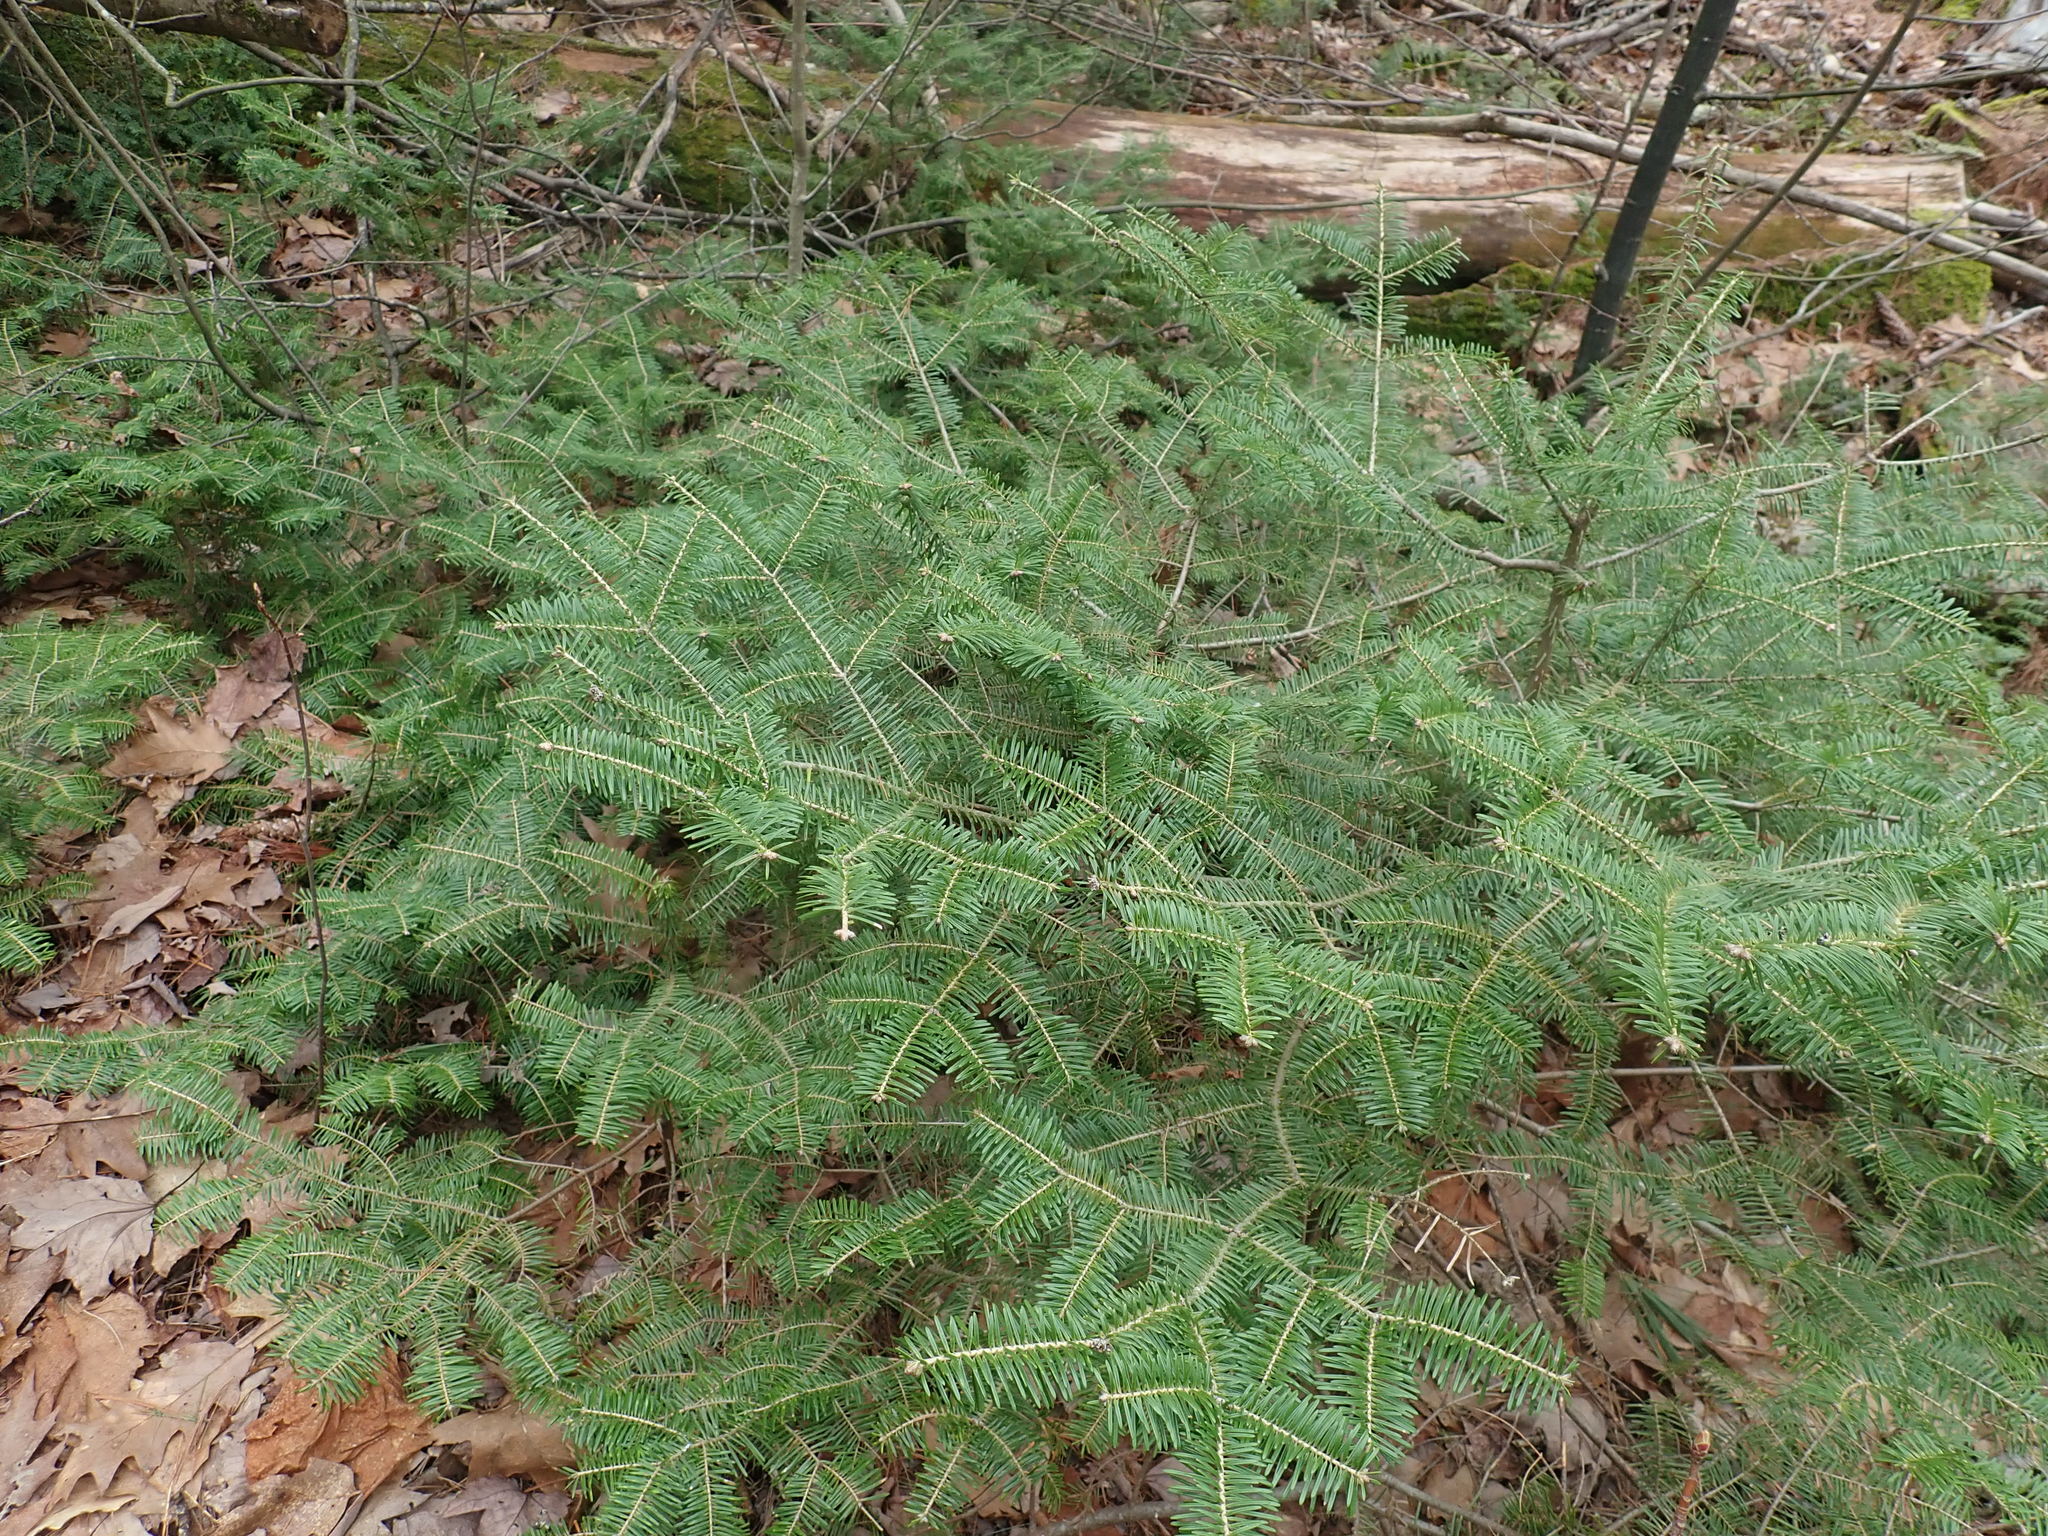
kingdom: Plantae
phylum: Tracheophyta
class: Pinopsida
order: Pinales
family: Pinaceae
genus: Abies
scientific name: Abies balsamea
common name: Balsam fir
